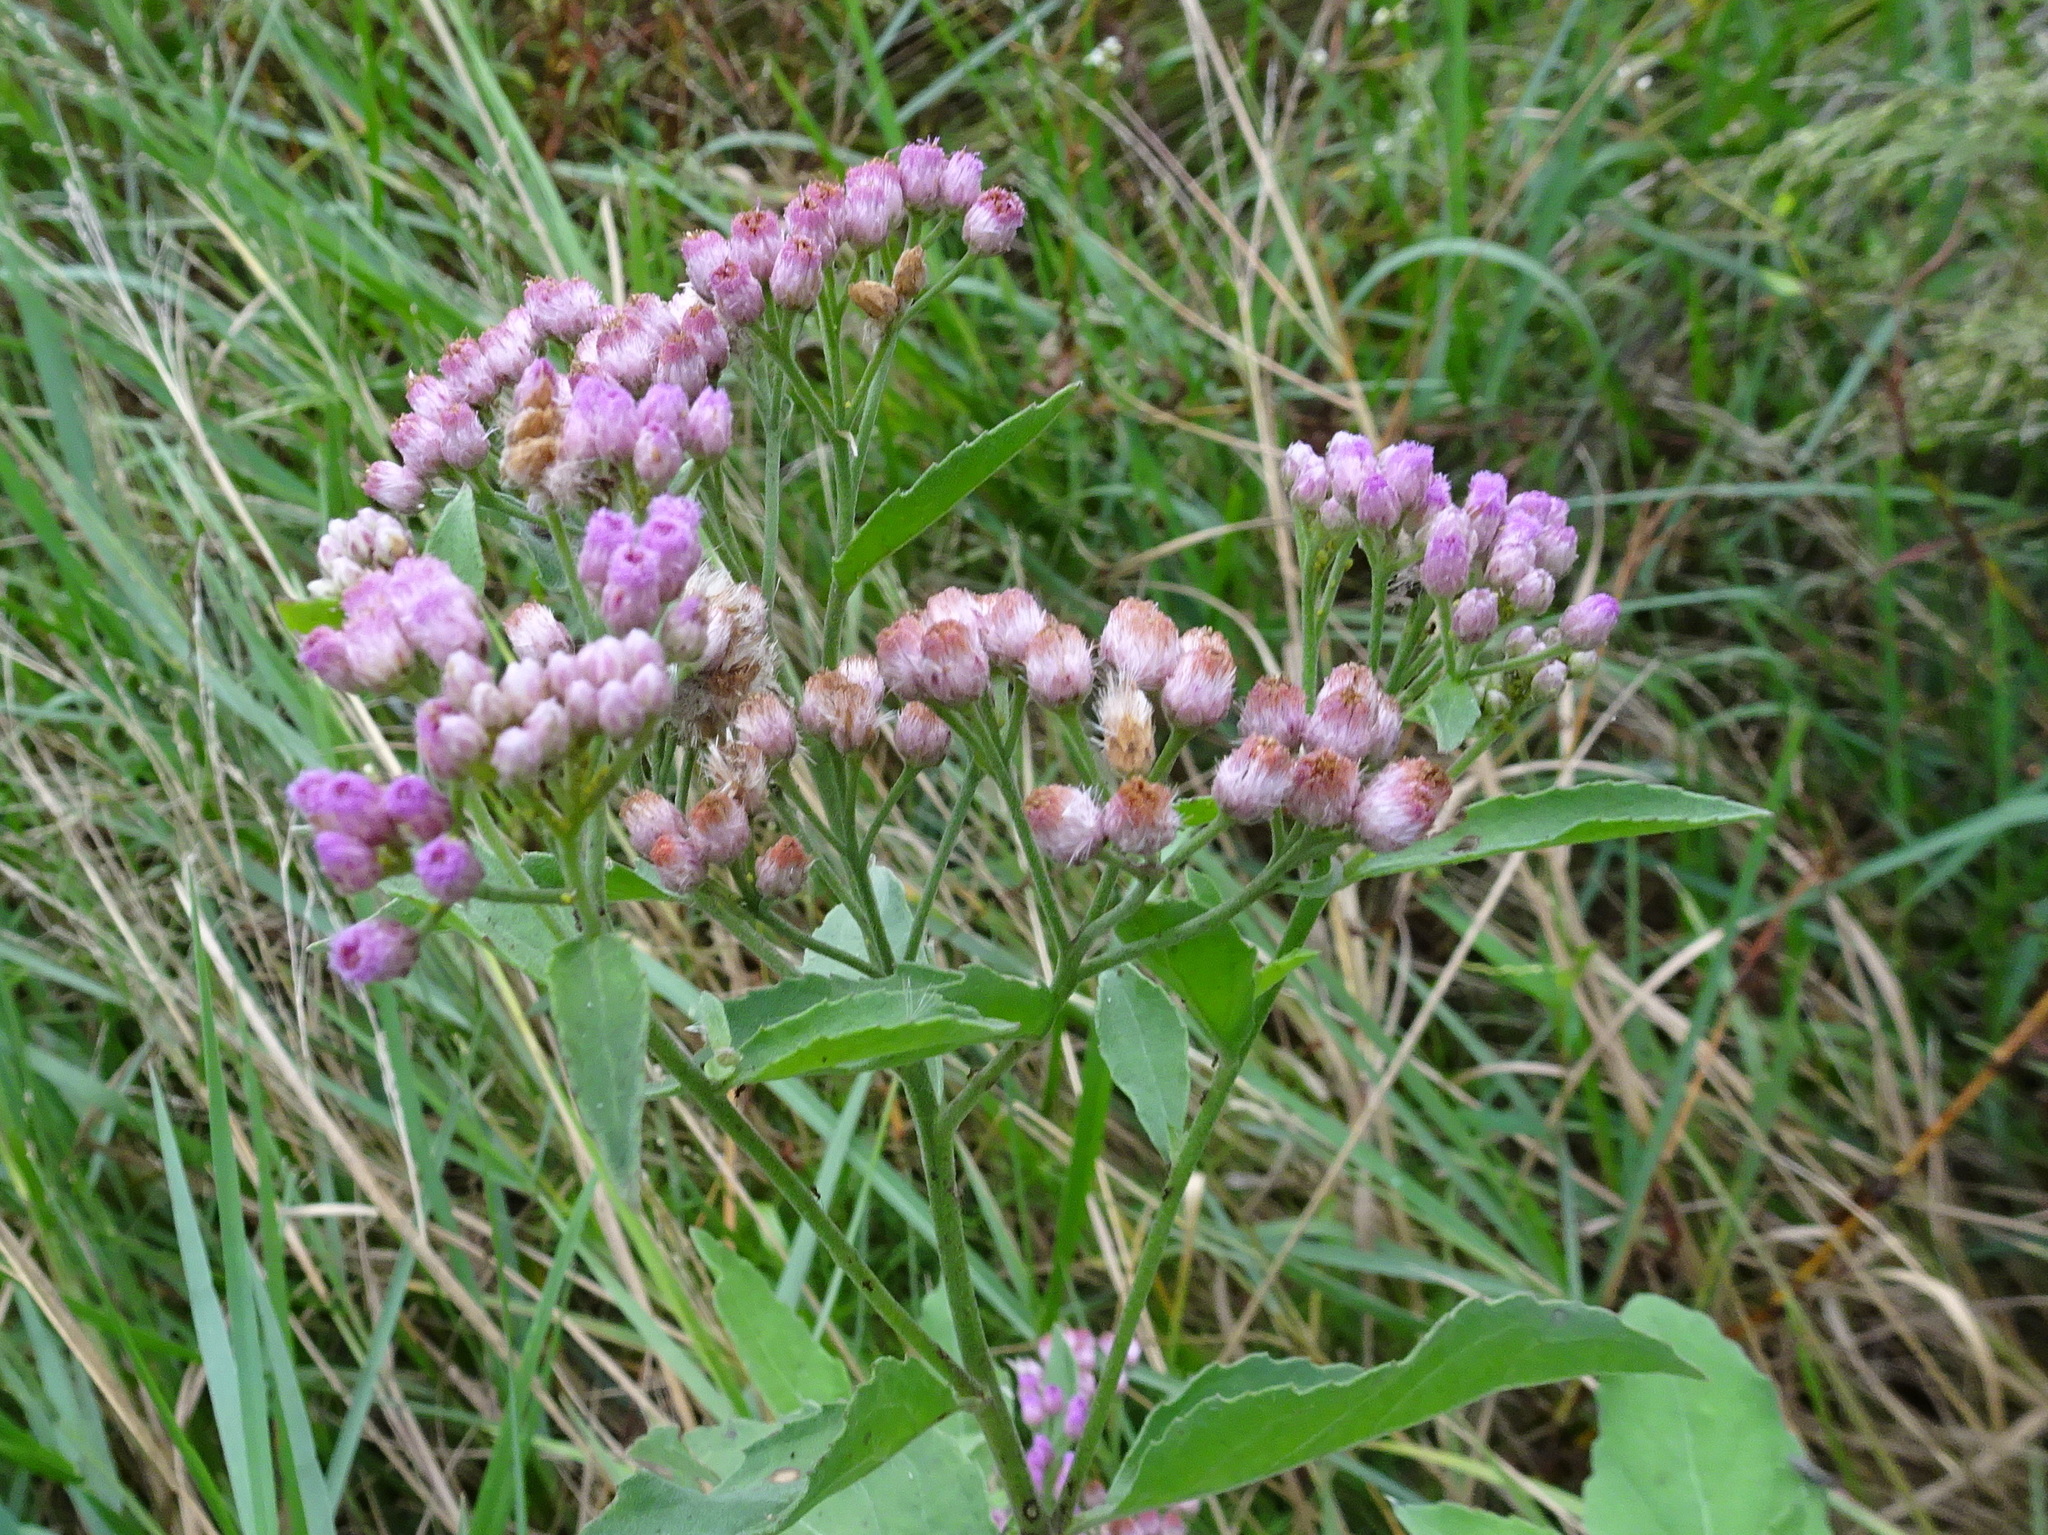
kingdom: Plantae
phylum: Tracheophyta
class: Magnoliopsida
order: Asterales
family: Asteraceae
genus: Pluchea
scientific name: Pluchea odorata
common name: Saltmarsh fleabane
